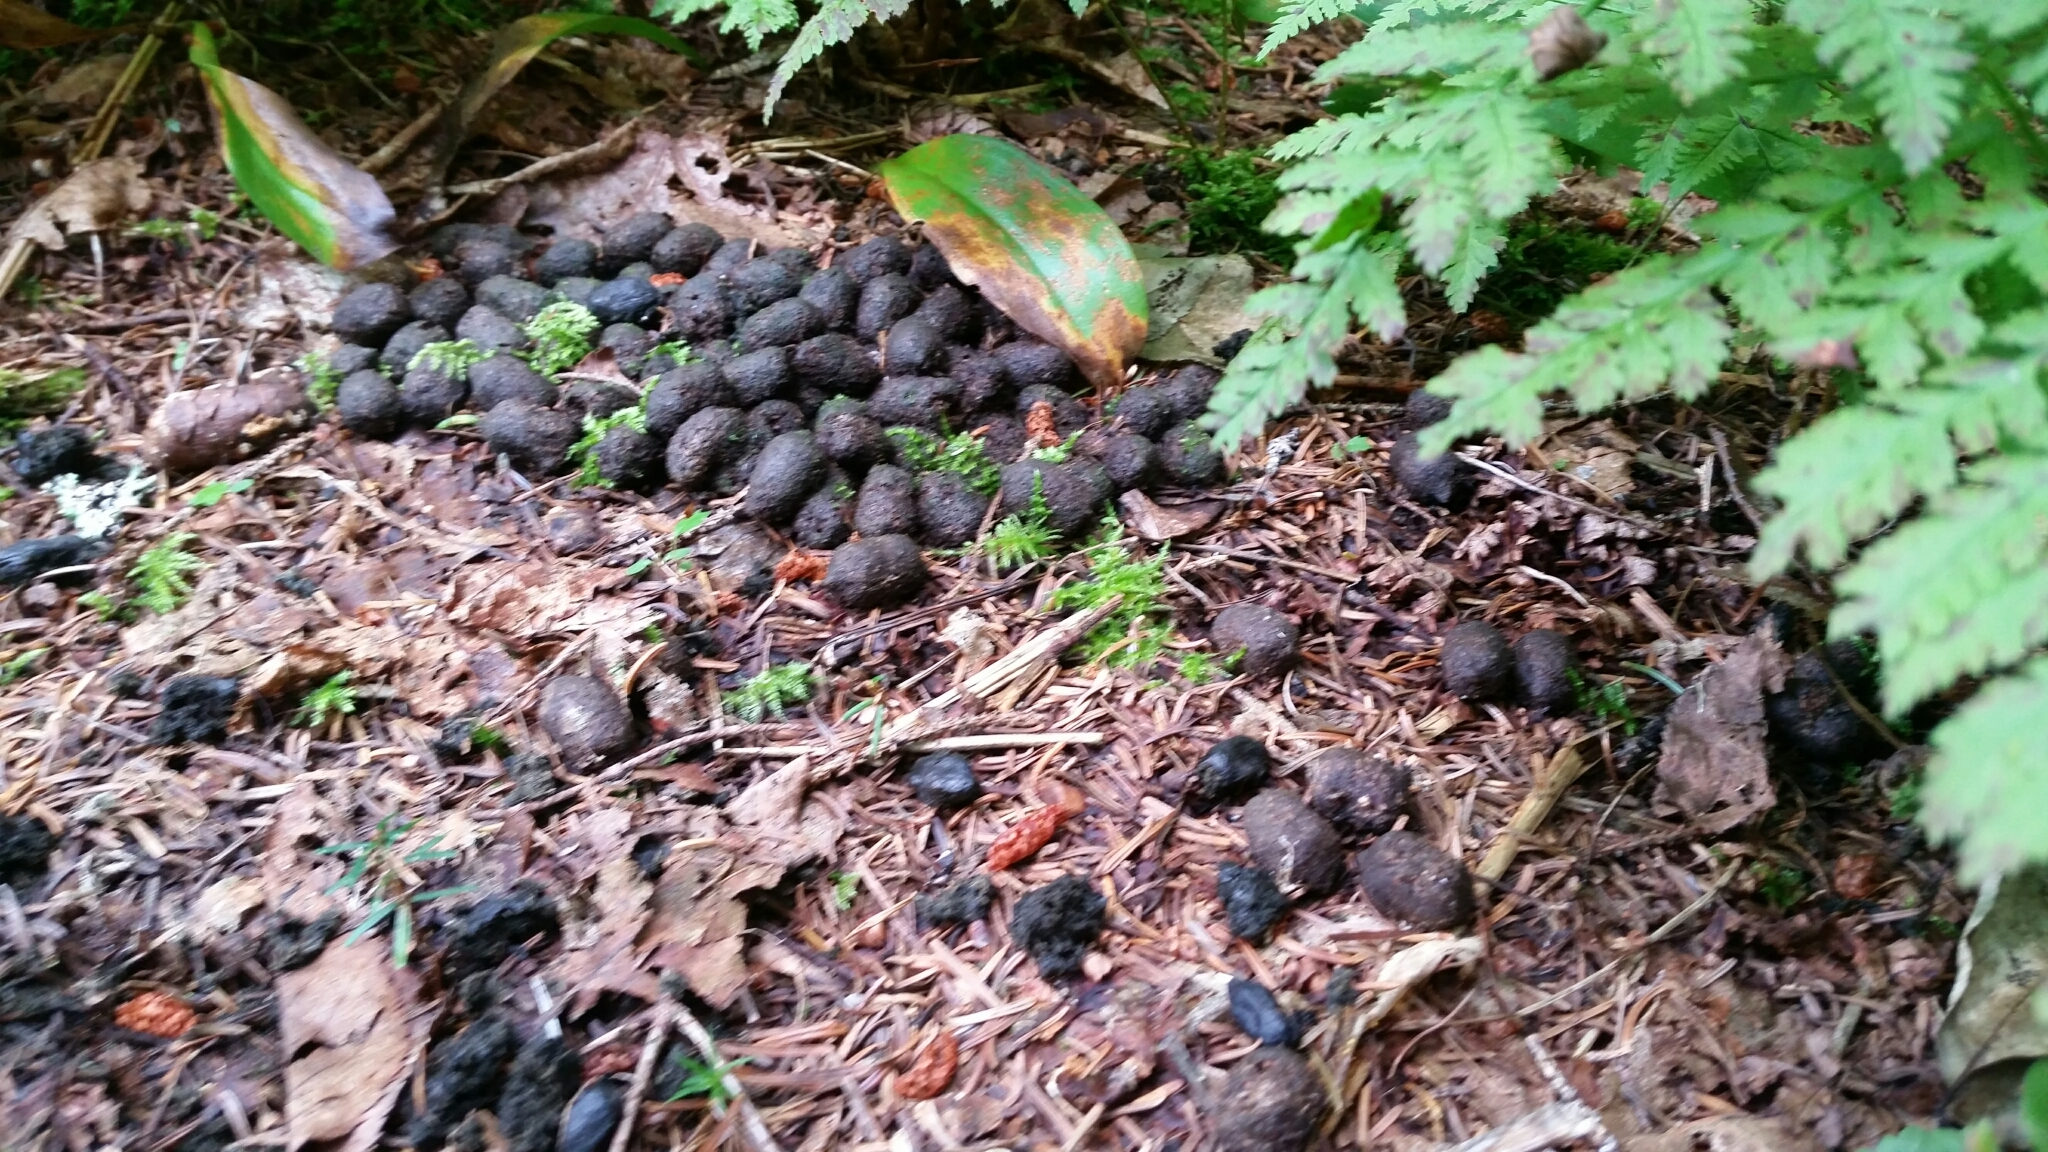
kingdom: Animalia
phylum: Chordata
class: Mammalia
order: Artiodactyla
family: Cervidae
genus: Odocoileus
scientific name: Odocoileus virginianus
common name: White-tailed deer
